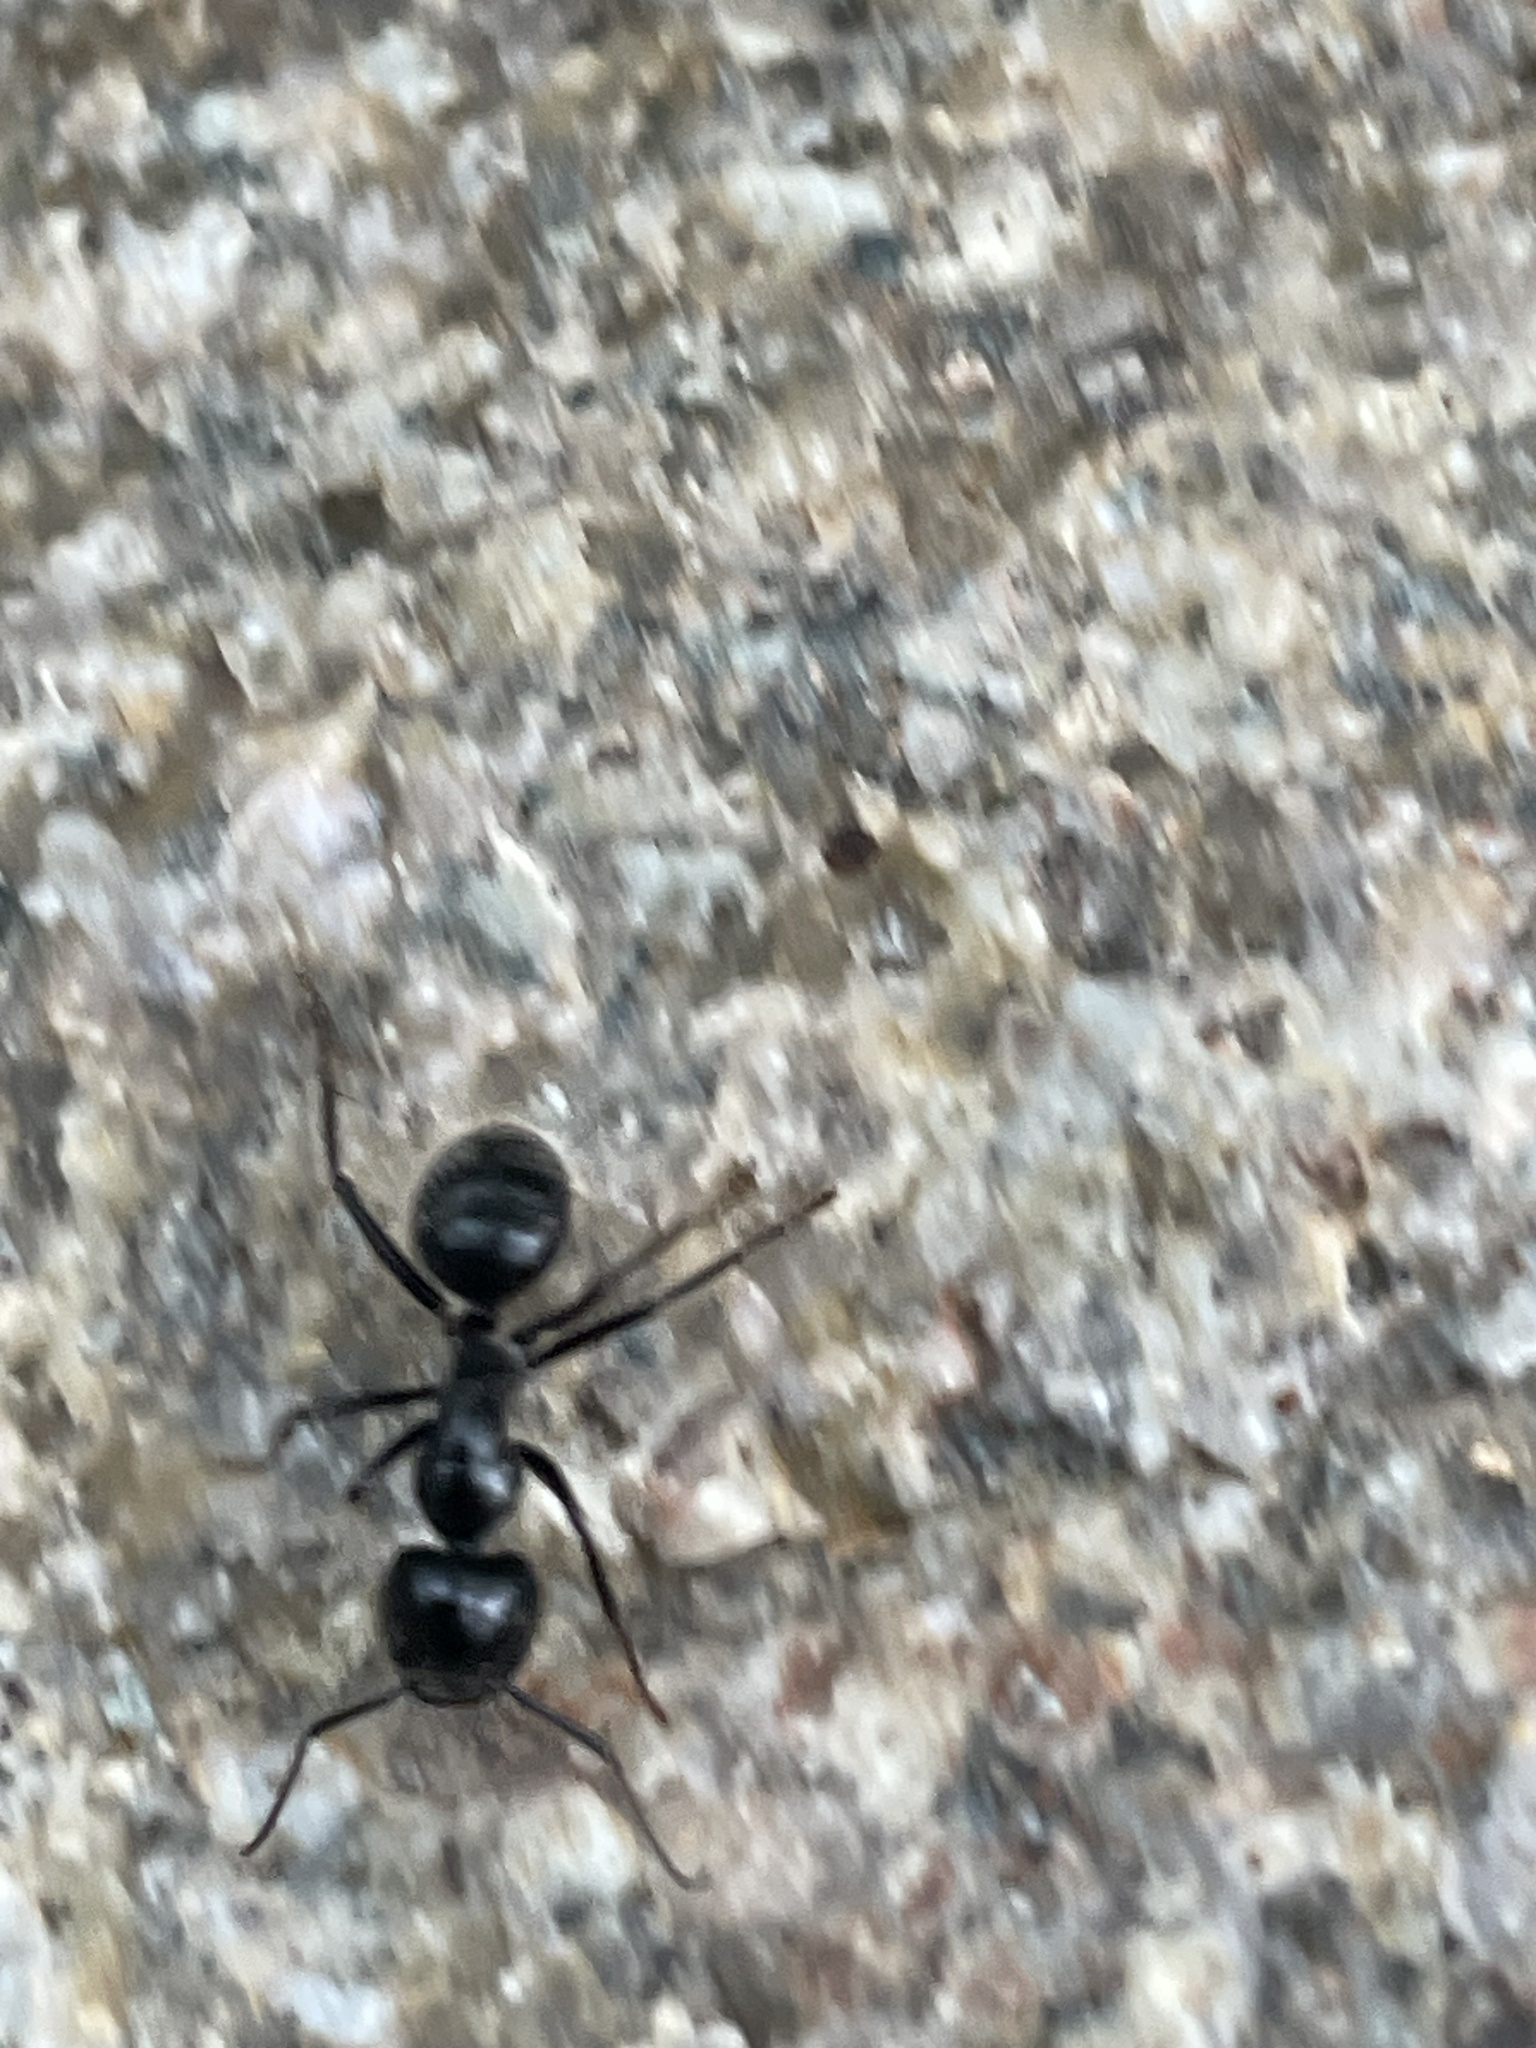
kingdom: Animalia
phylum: Arthropoda
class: Insecta
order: Hymenoptera
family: Formicidae
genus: Camponotus
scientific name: Camponotus
